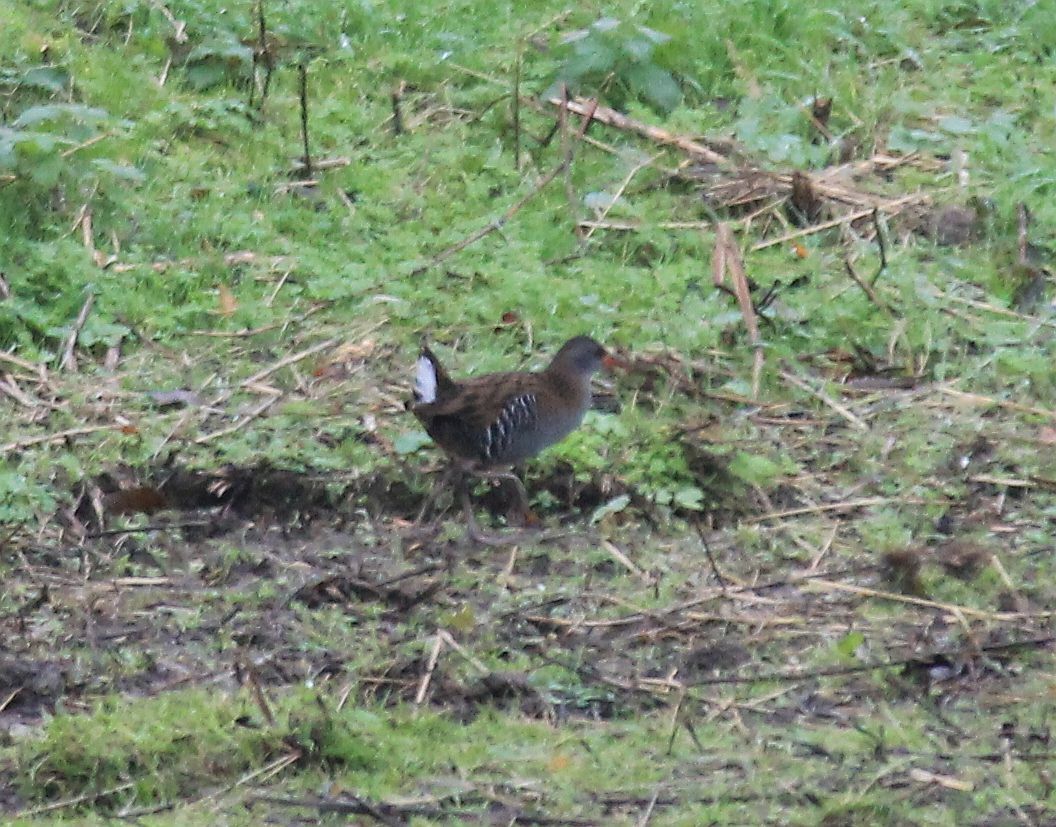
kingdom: Animalia
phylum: Chordata
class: Aves
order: Gruiformes
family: Rallidae
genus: Rallus
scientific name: Rallus aquaticus
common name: Water rail
